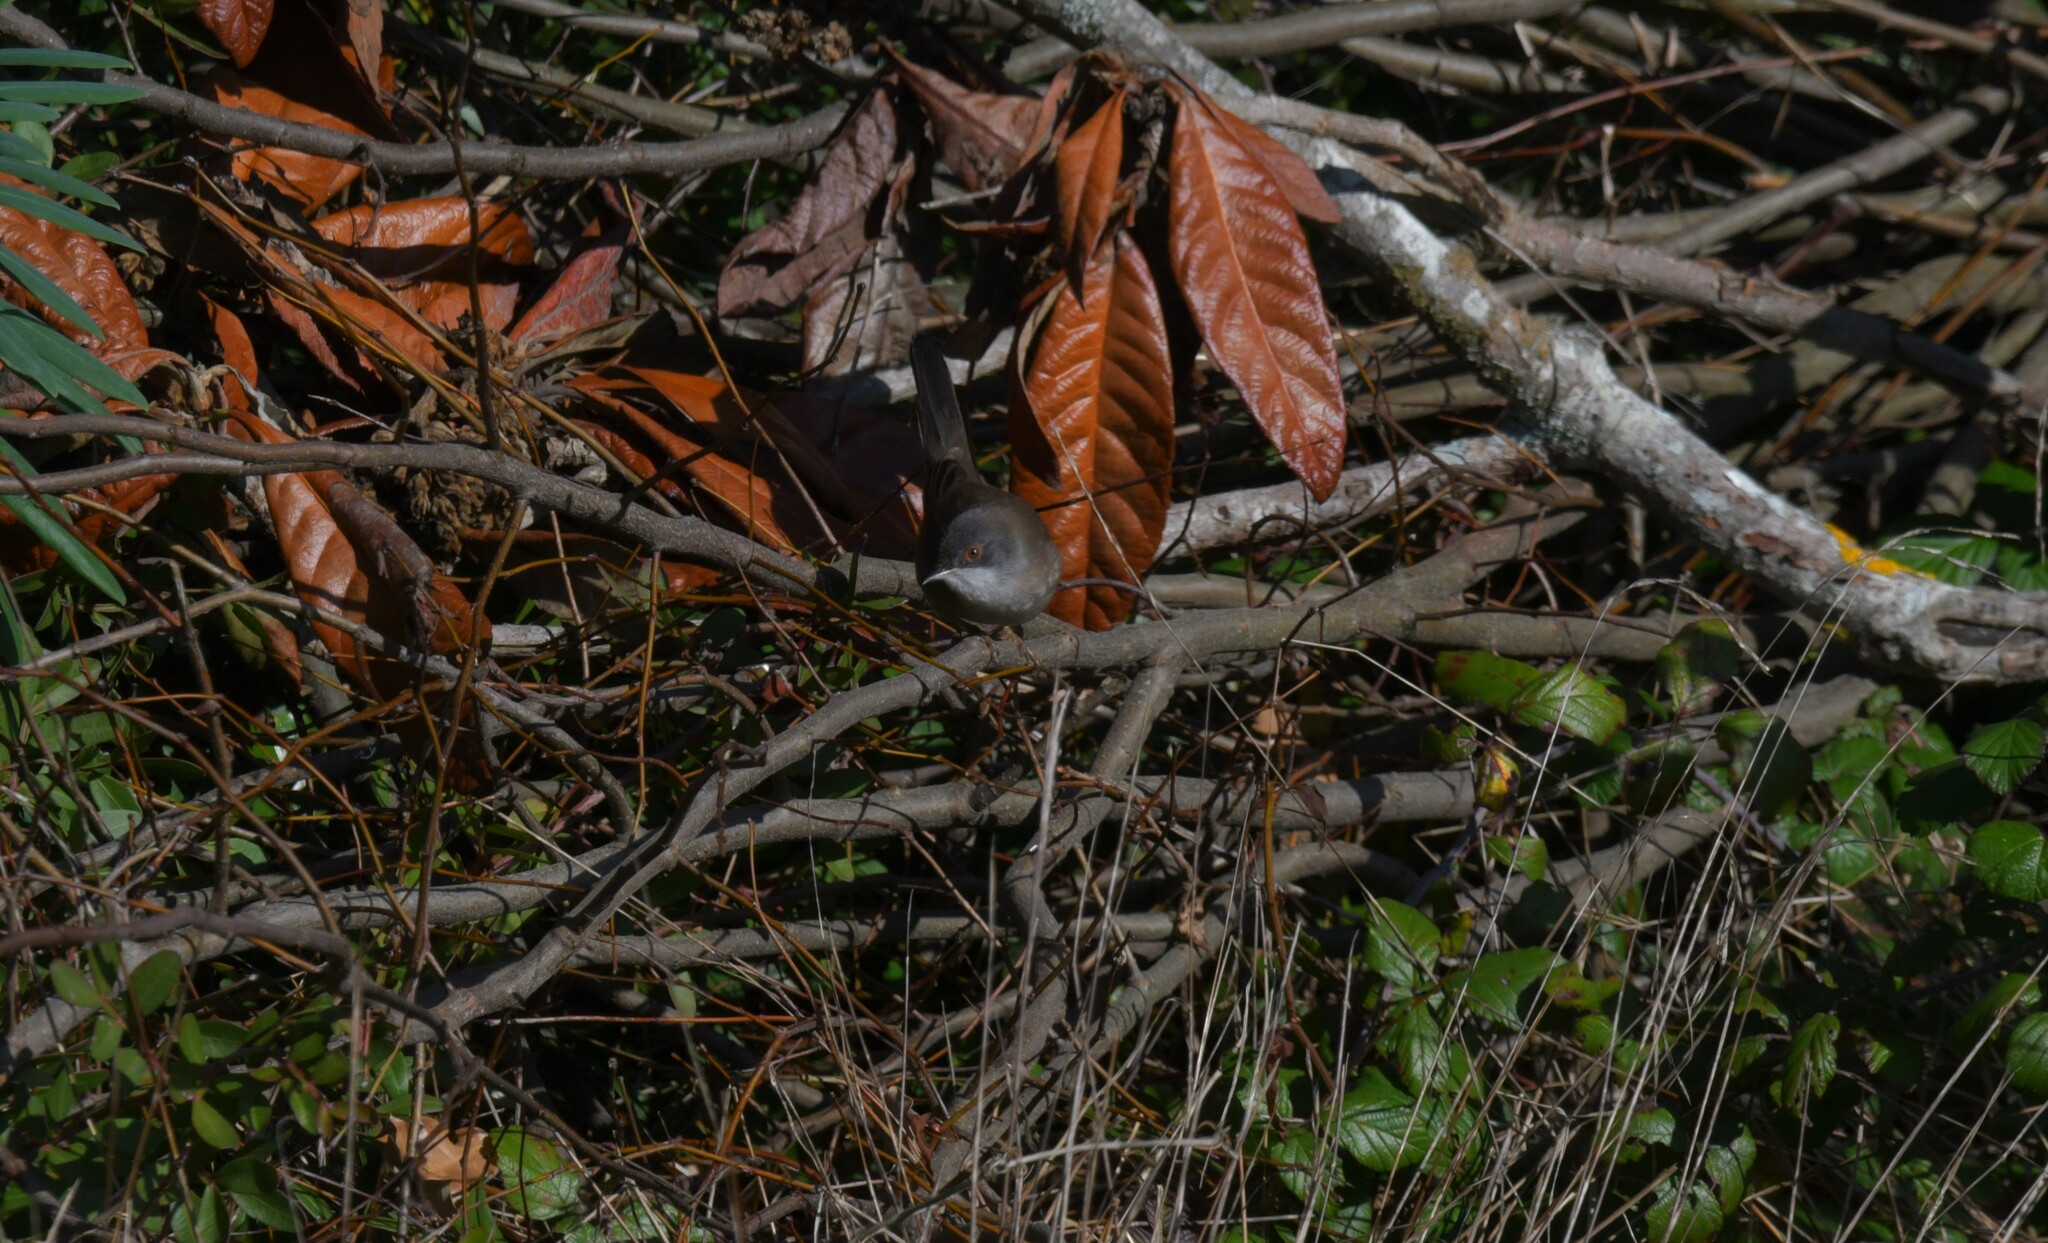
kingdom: Animalia
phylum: Chordata
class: Aves
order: Passeriformes
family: Sylviidae
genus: Curruca
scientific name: Curruca melanocephala
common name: Sardinian warbler
